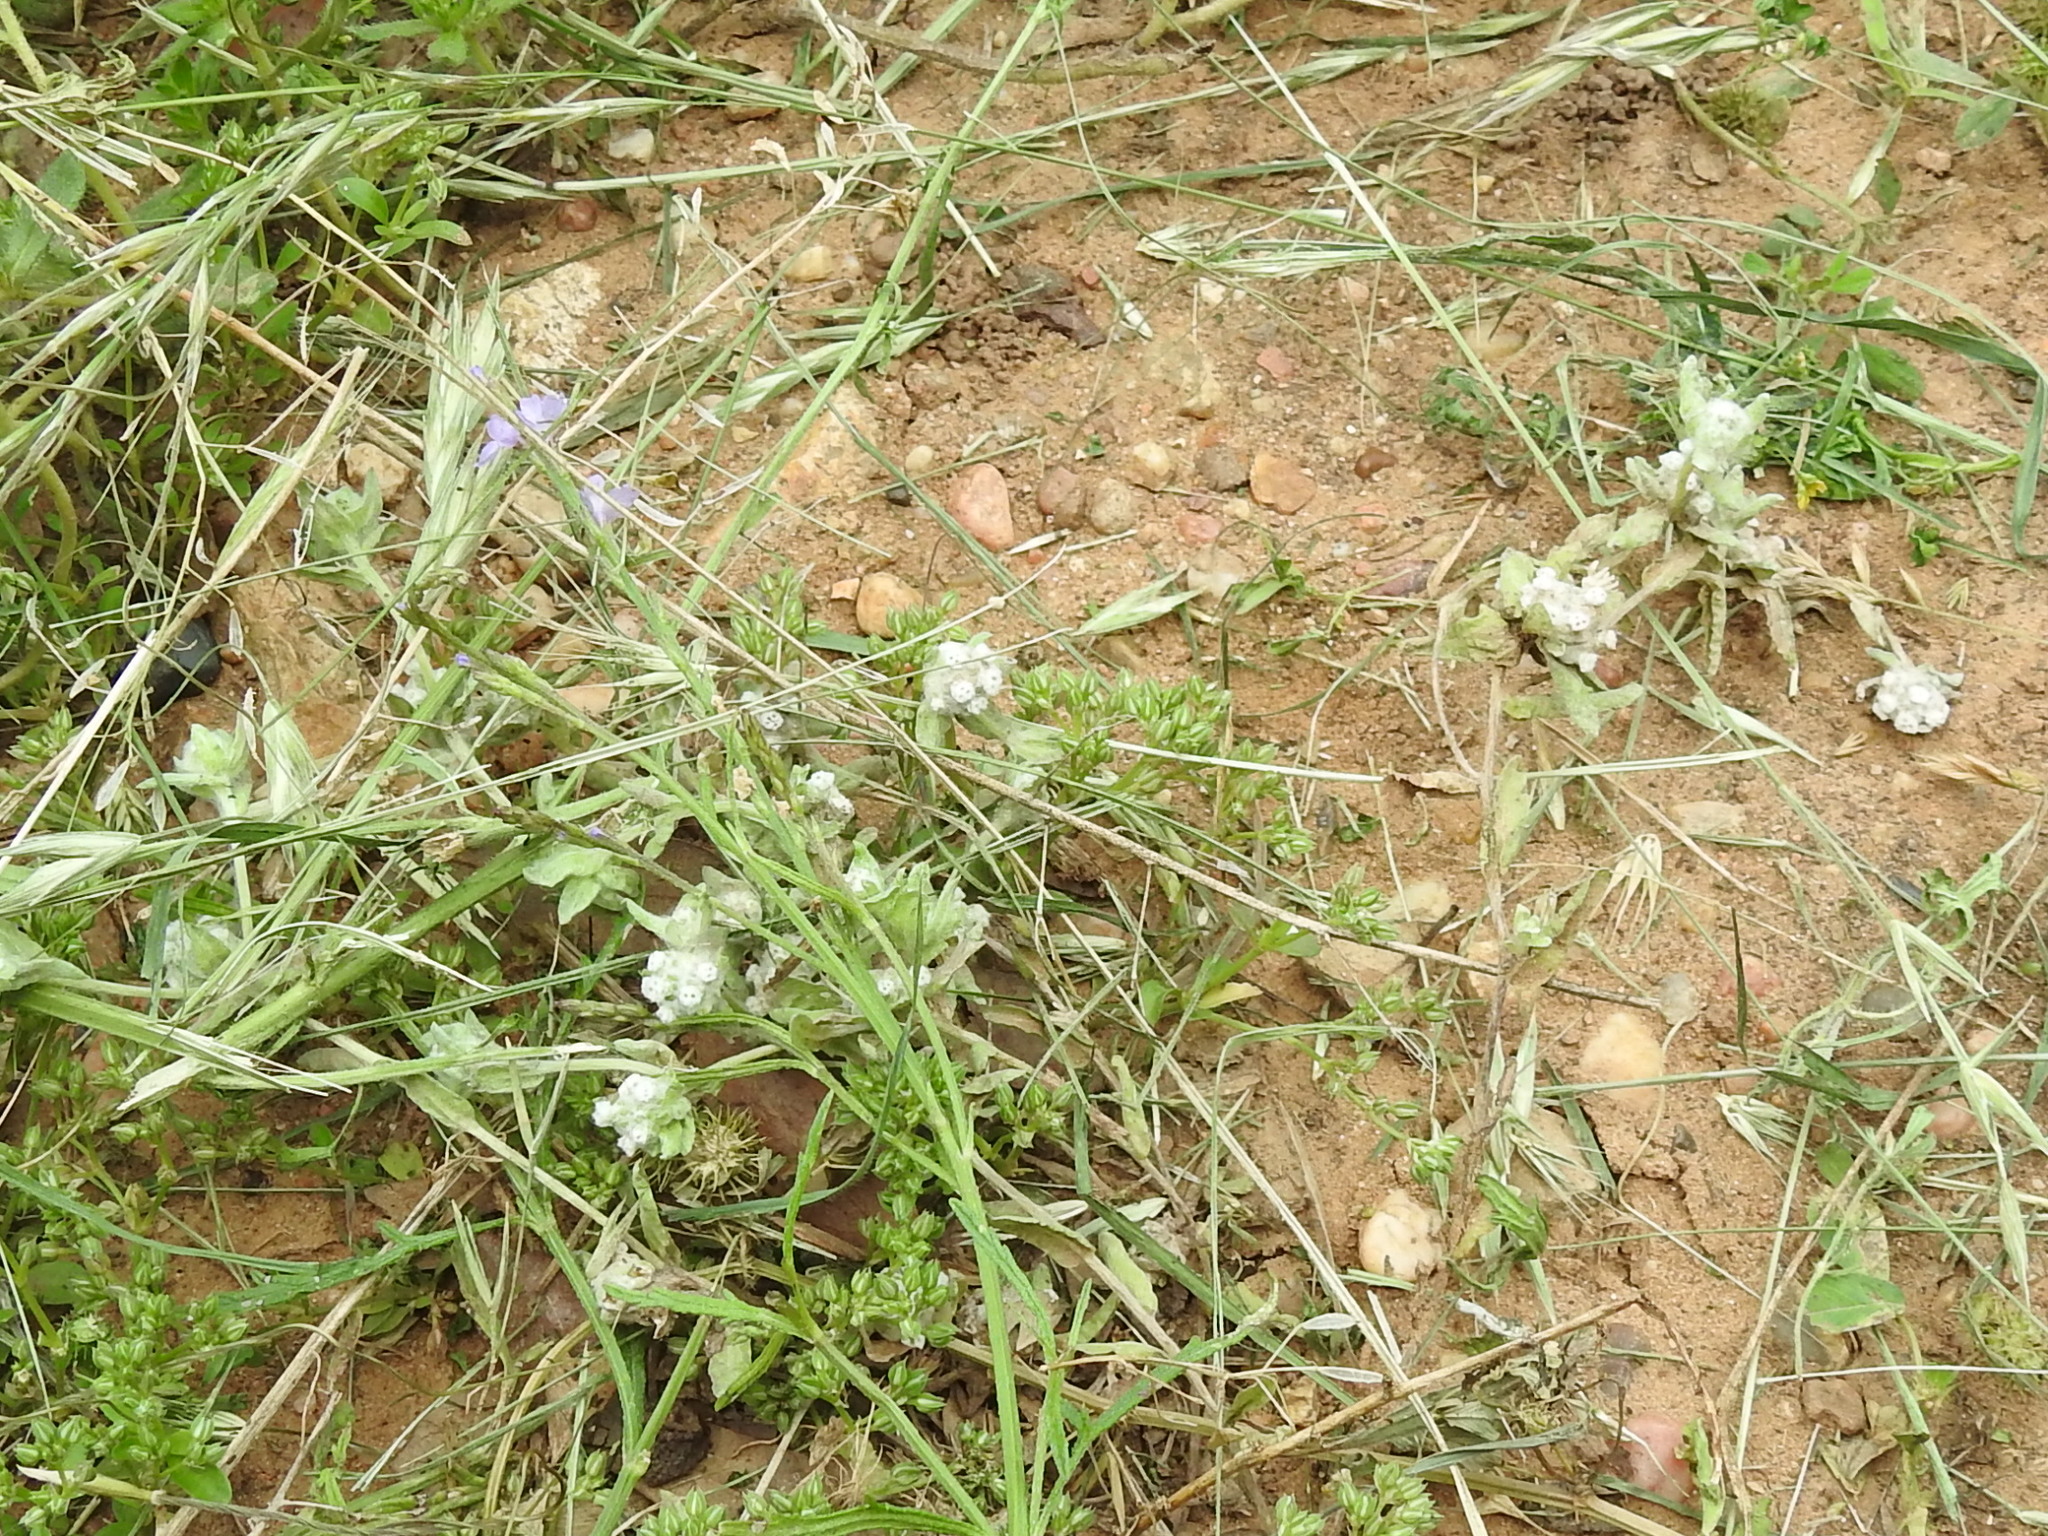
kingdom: Plantae
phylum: Tracheophyta
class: Magnoliopsida
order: Asterales
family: Asteraceae
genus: Diaperia
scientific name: Diaperia verna
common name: Many-stem rabbit-tobacco
